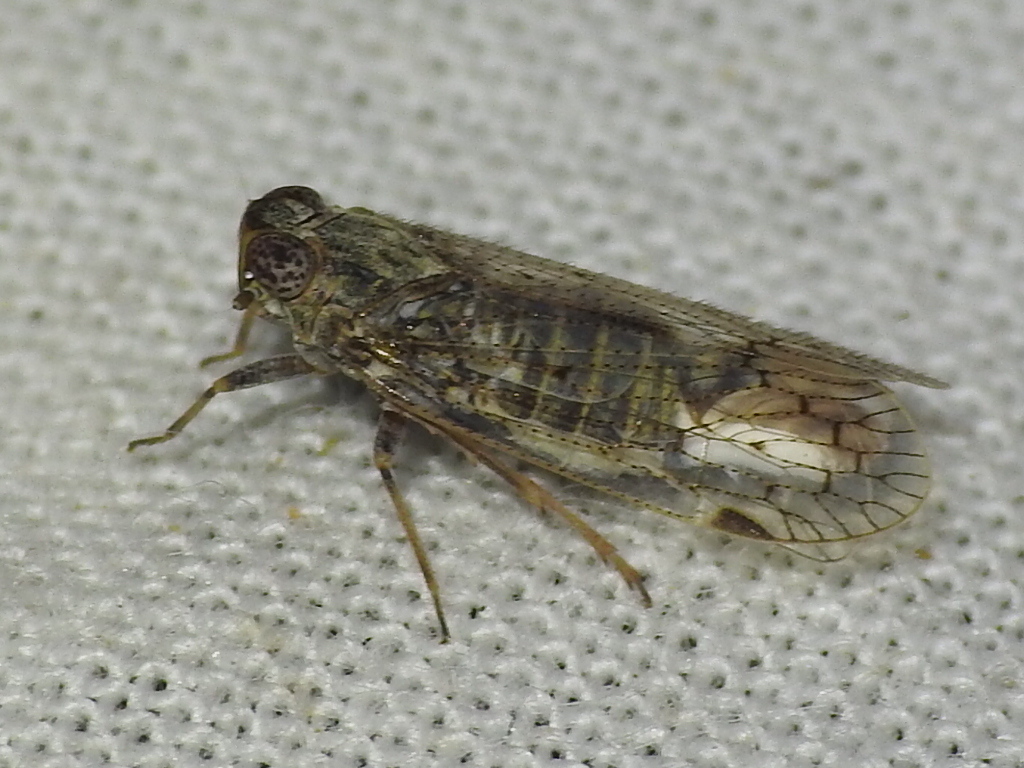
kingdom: Animalia
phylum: Arthropoda
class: Insecta
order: Hemiptera
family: Cixiidae
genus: Melanoliarus
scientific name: Melanoliarus aridus
